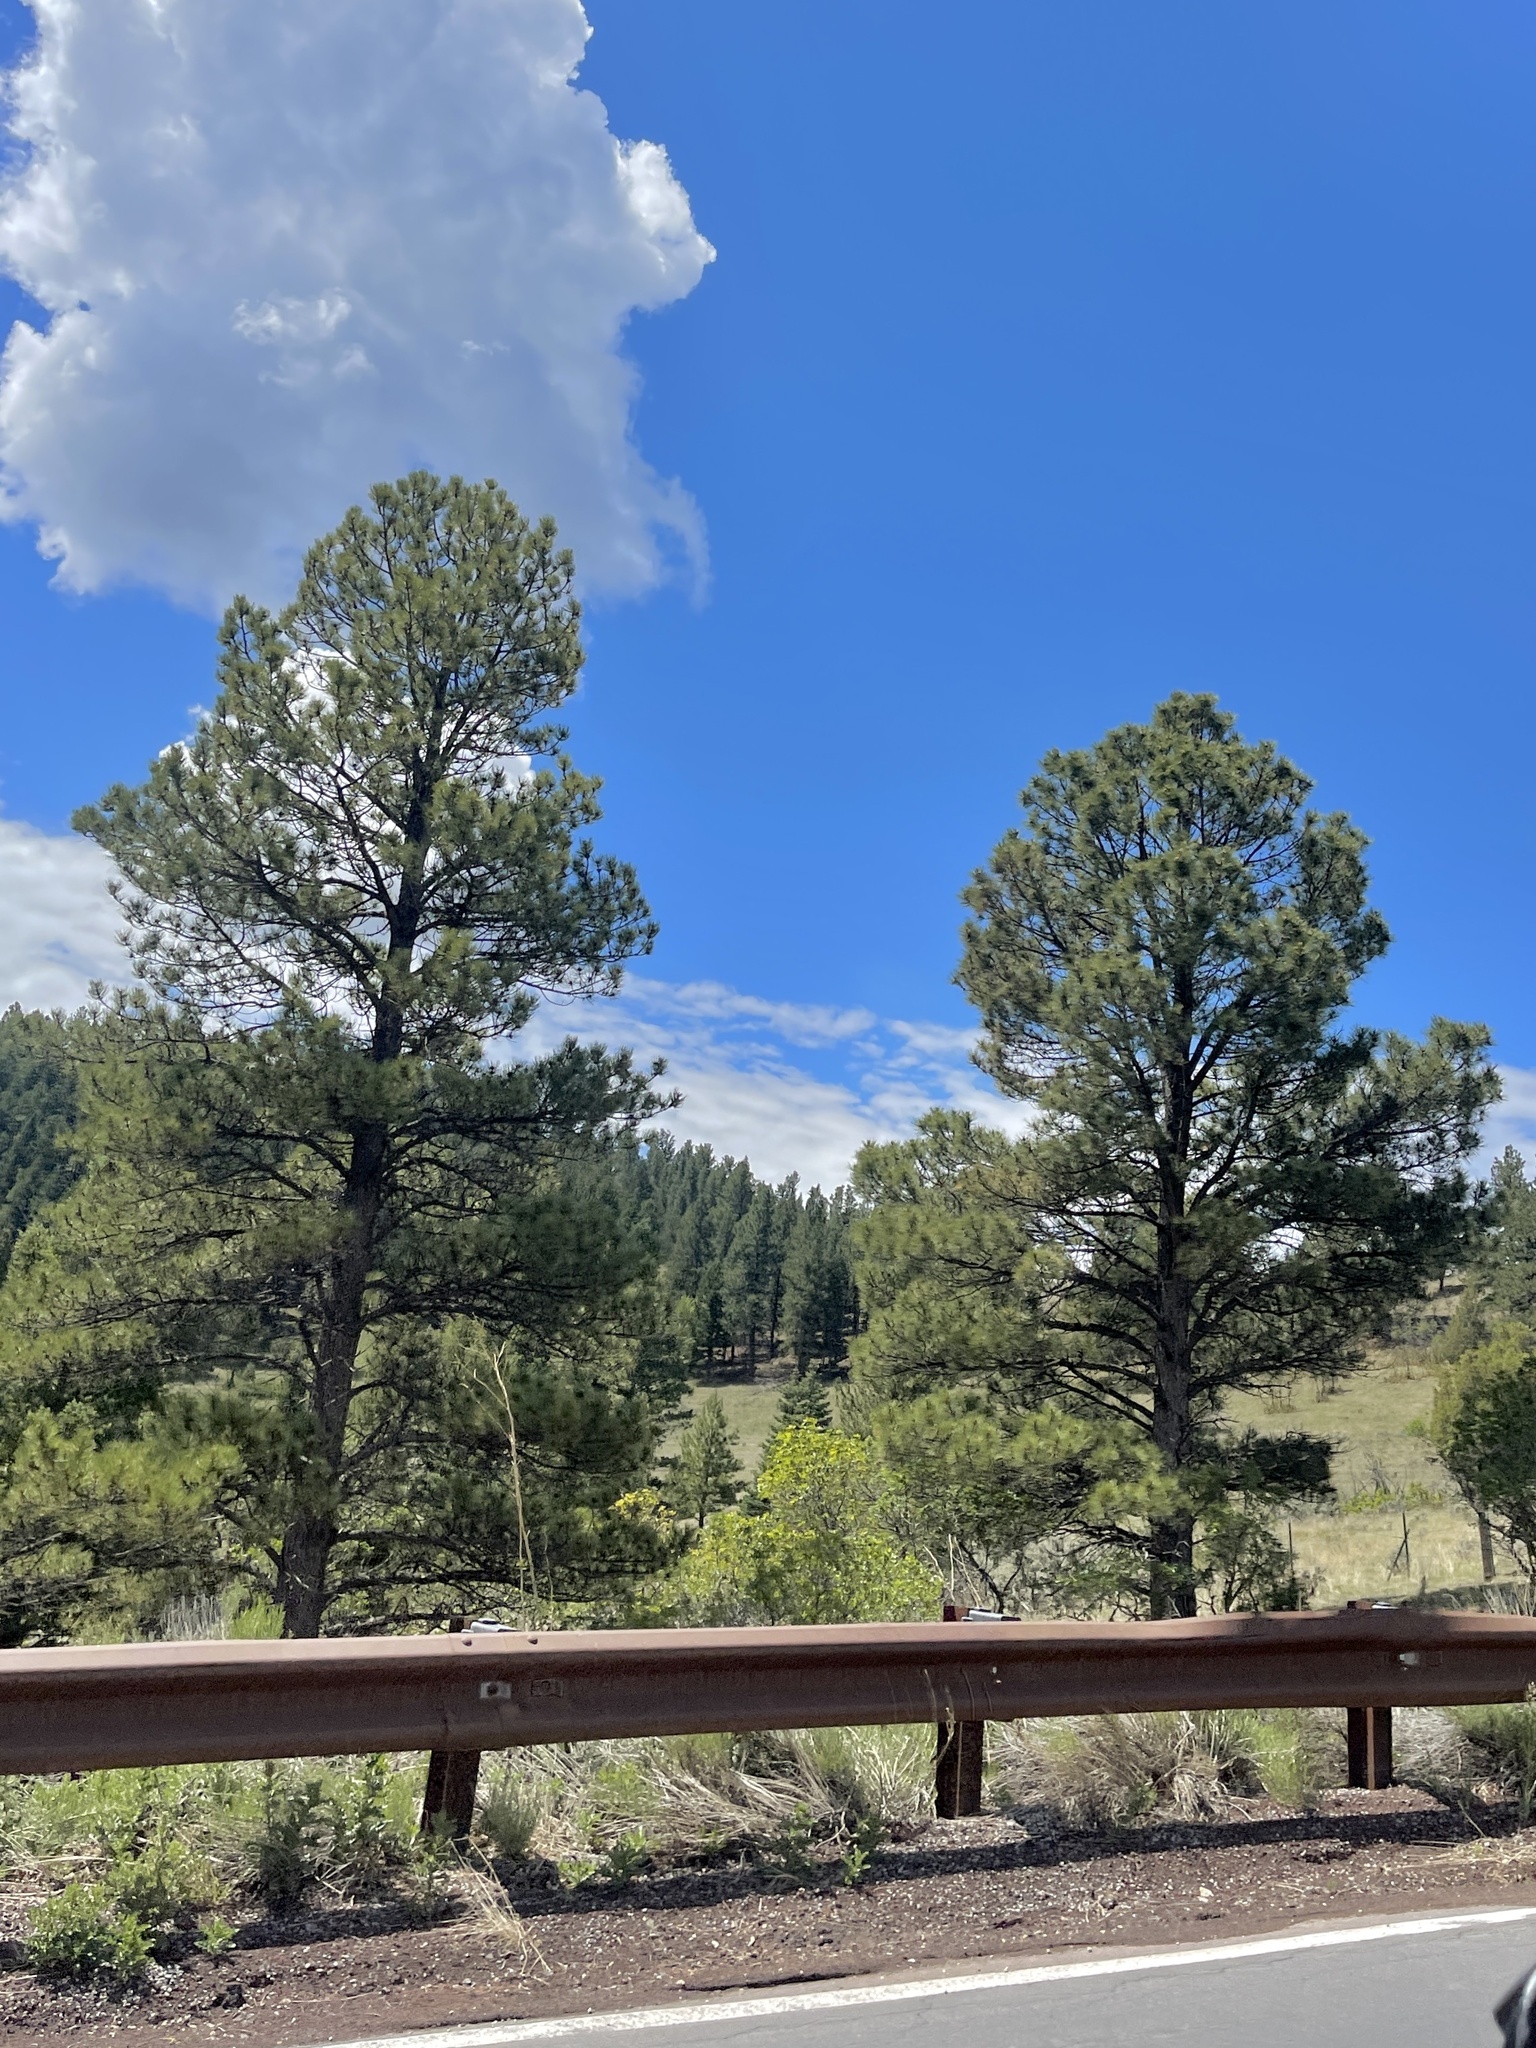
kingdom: Plantae
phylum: Tracheophyta
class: Pinopsida
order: Pinales
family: Pinaceae
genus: Pinus
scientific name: Pinus ponderosa
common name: Western yellow-pine
